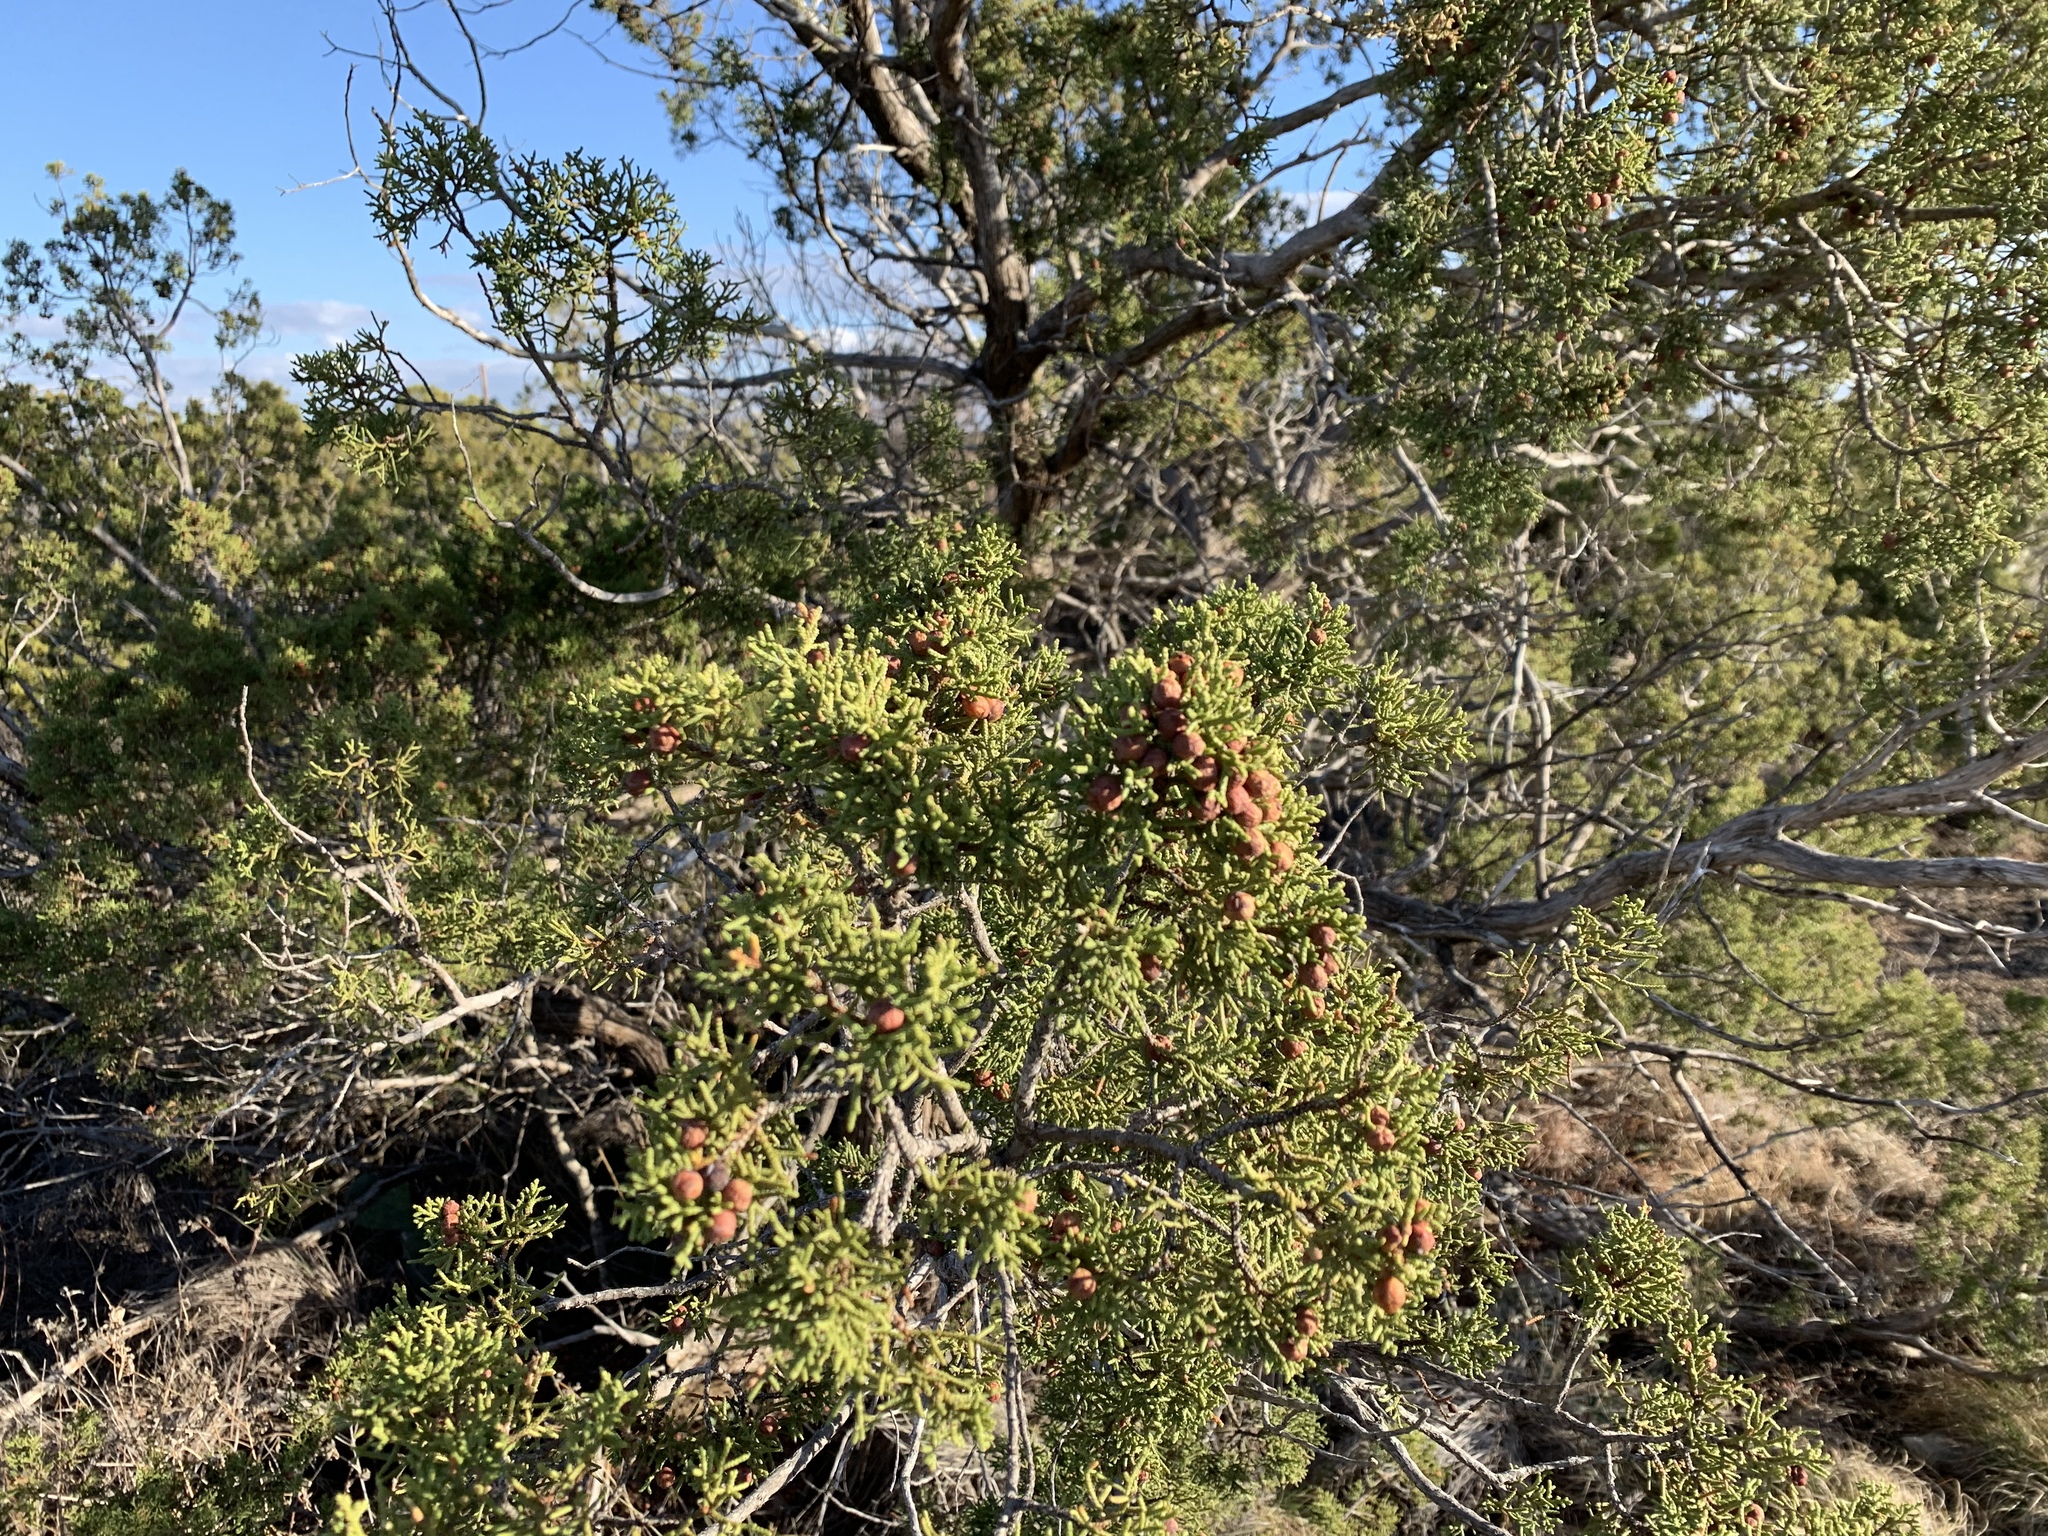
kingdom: Plantae
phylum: Tracheophyta
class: Pinopsida
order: Pinales
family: Cupressaceae
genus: Juniperus
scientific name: Juniperus pinchotii
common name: Pinchot juniper
